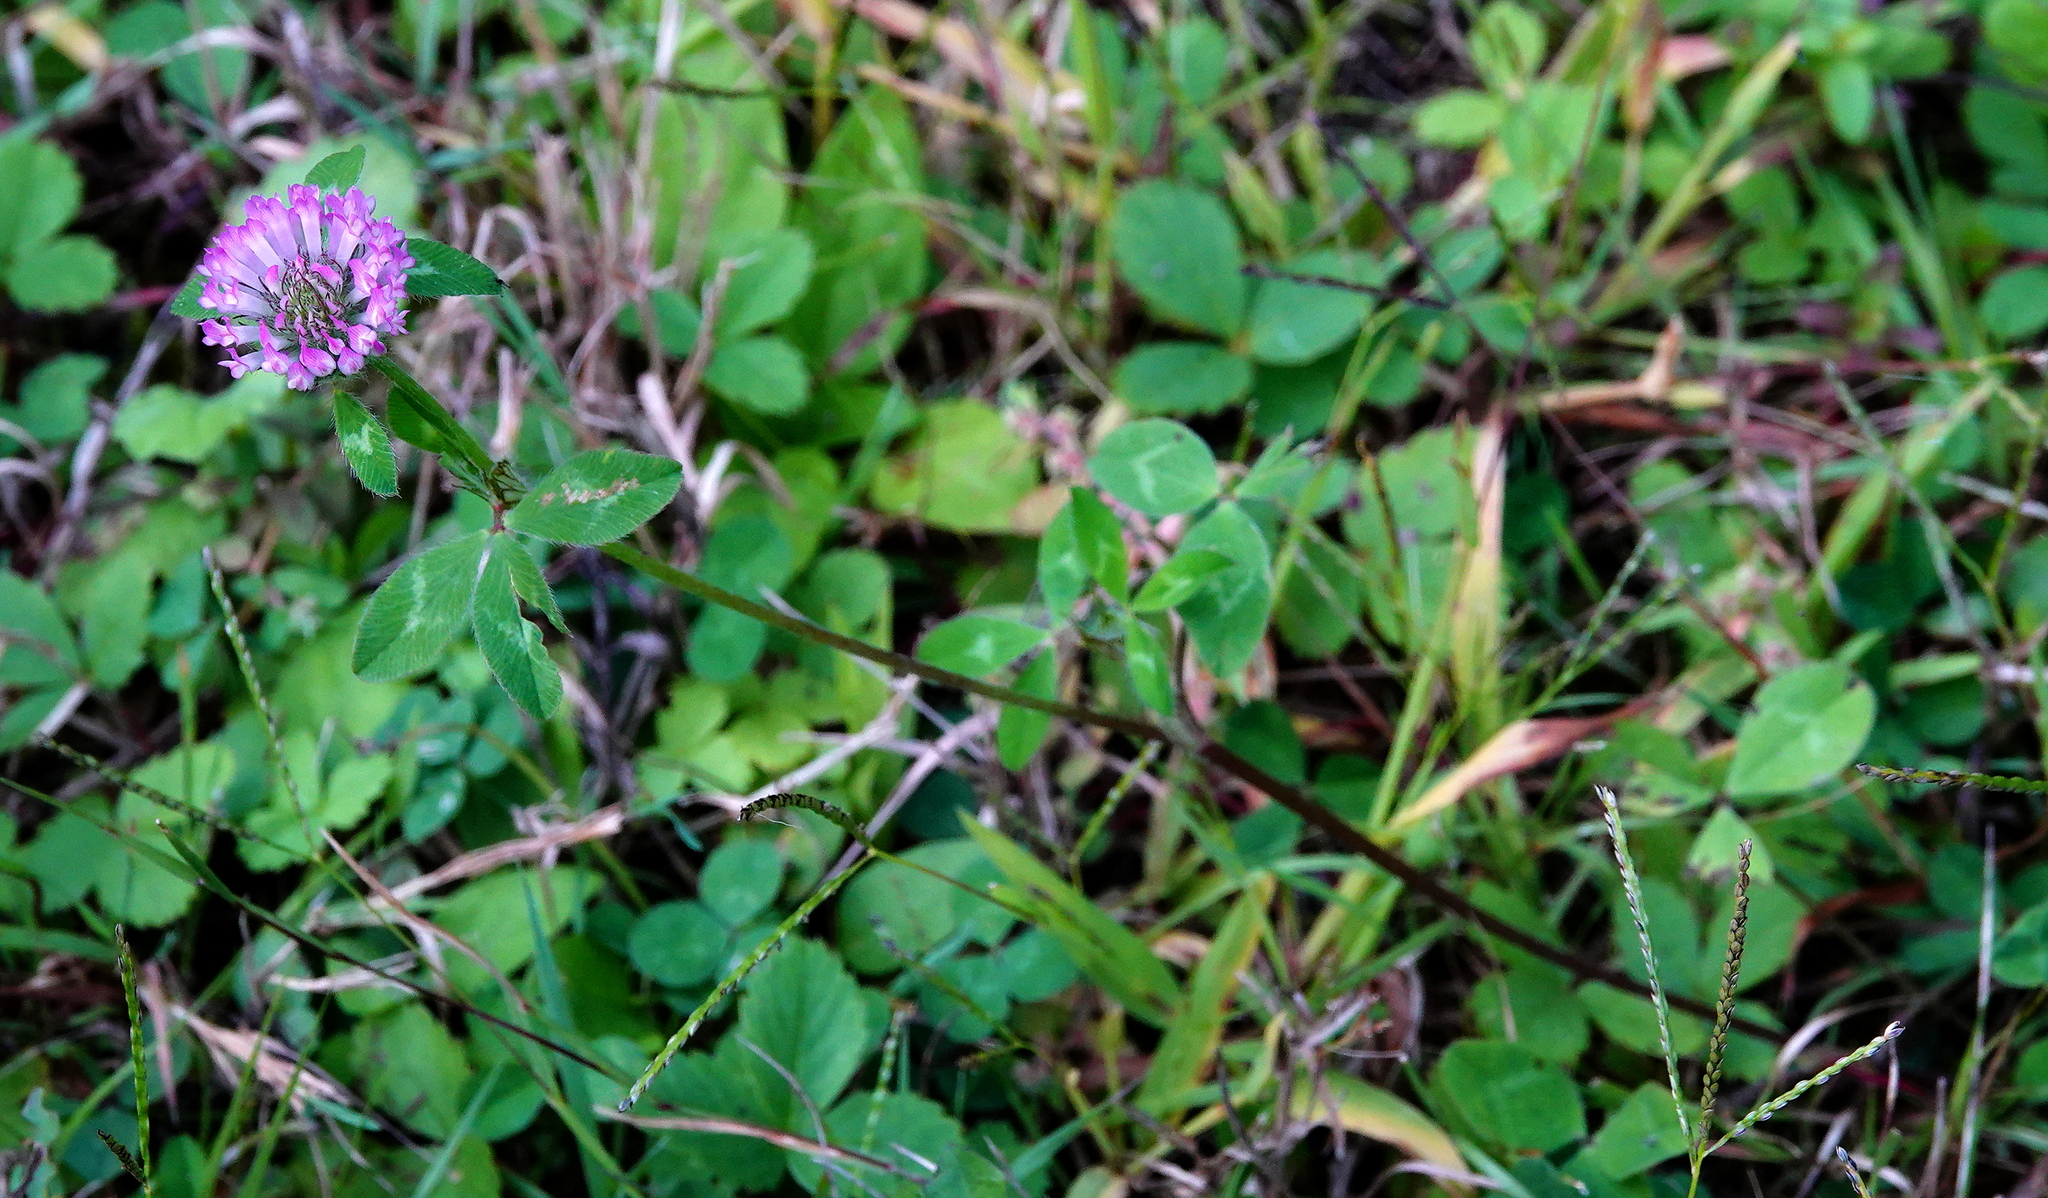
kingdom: Plantae
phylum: Tracheophyta
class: Magnoliopsida
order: Fabales
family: Fabaceae
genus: Trifolium
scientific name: Trifolium pratense
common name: Red clover
